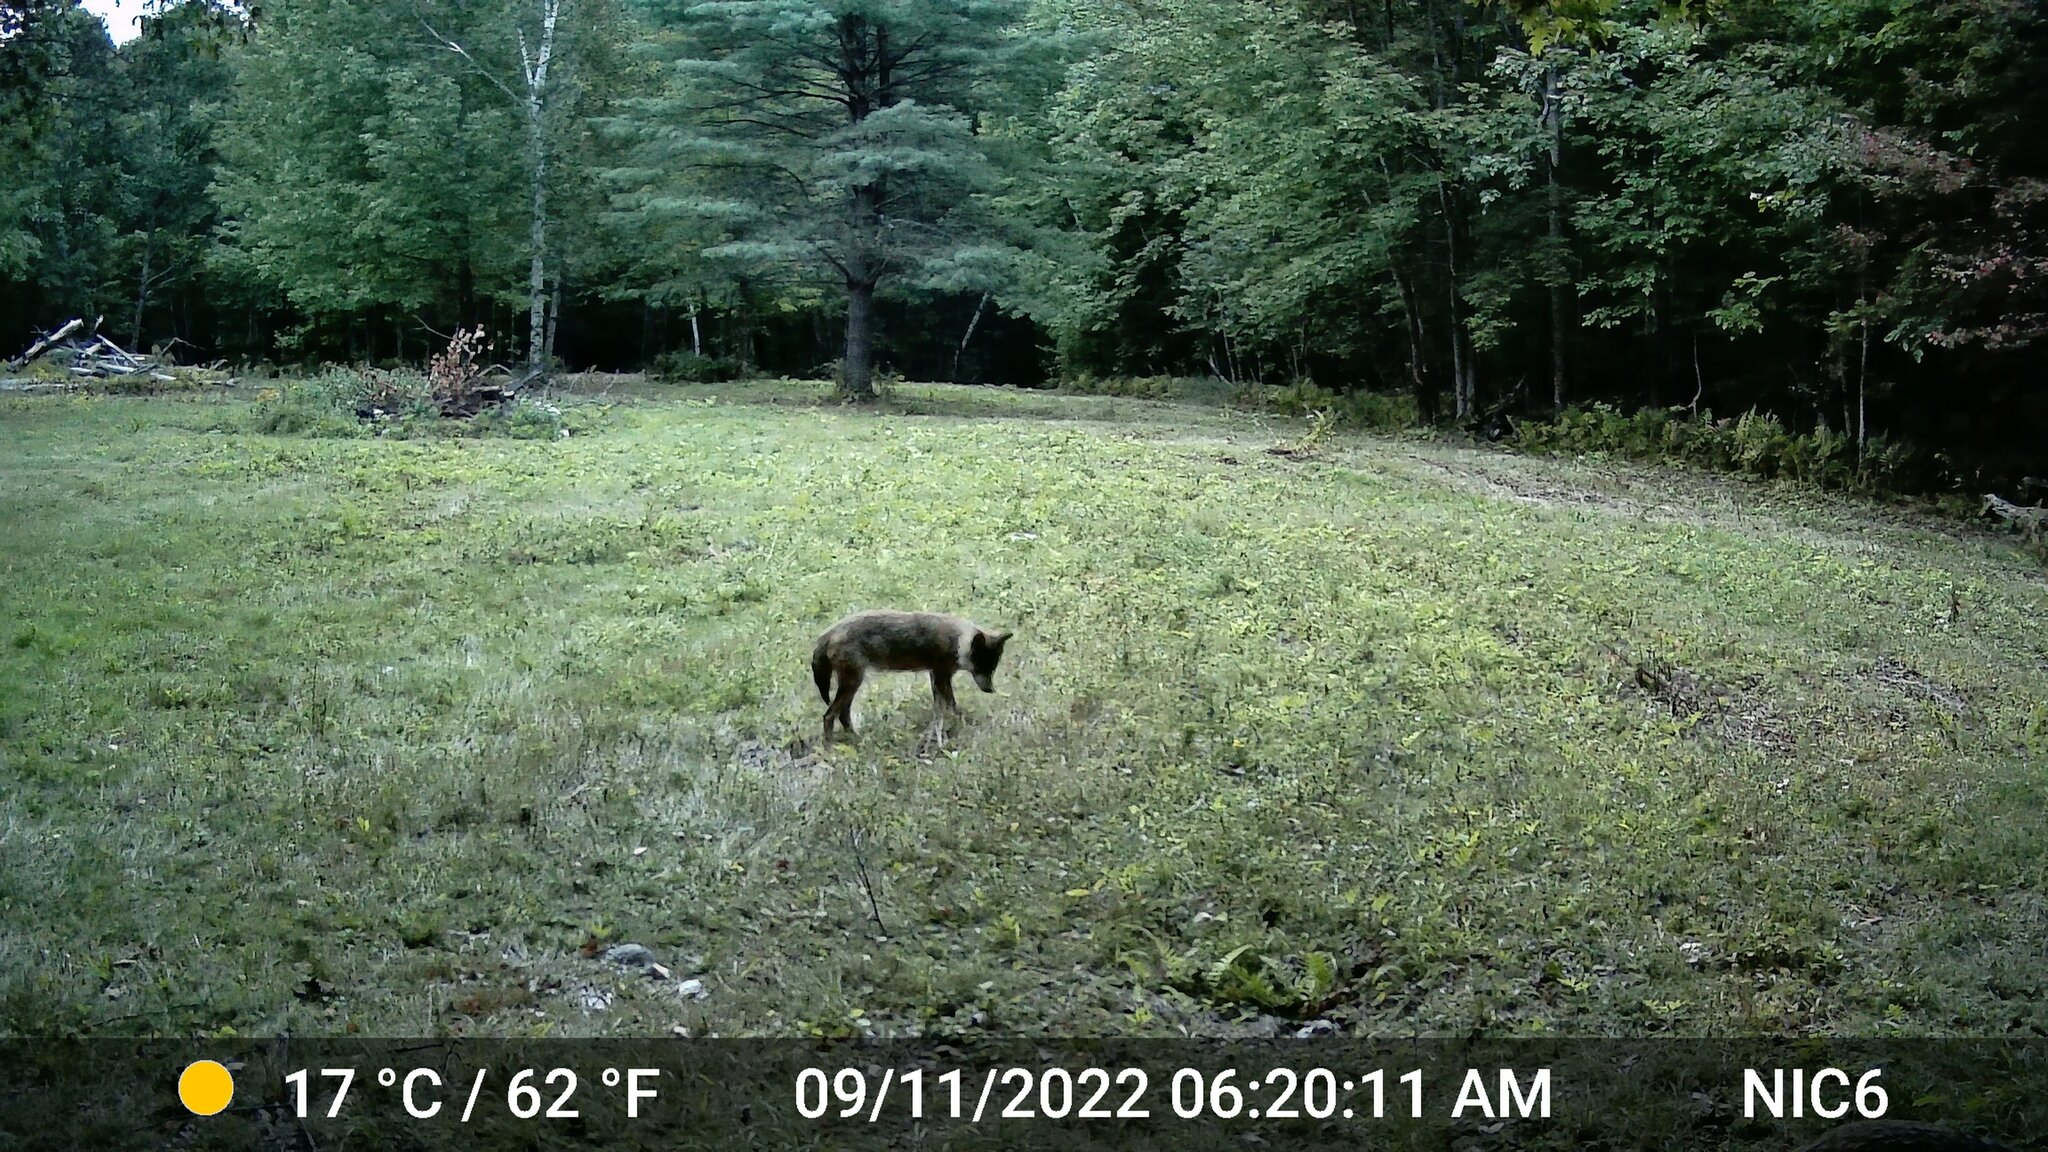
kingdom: Animalia
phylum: Chordata
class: Mammalia
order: Carnivora
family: Canidae
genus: Canis
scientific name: Canis latrans
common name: Coyote
